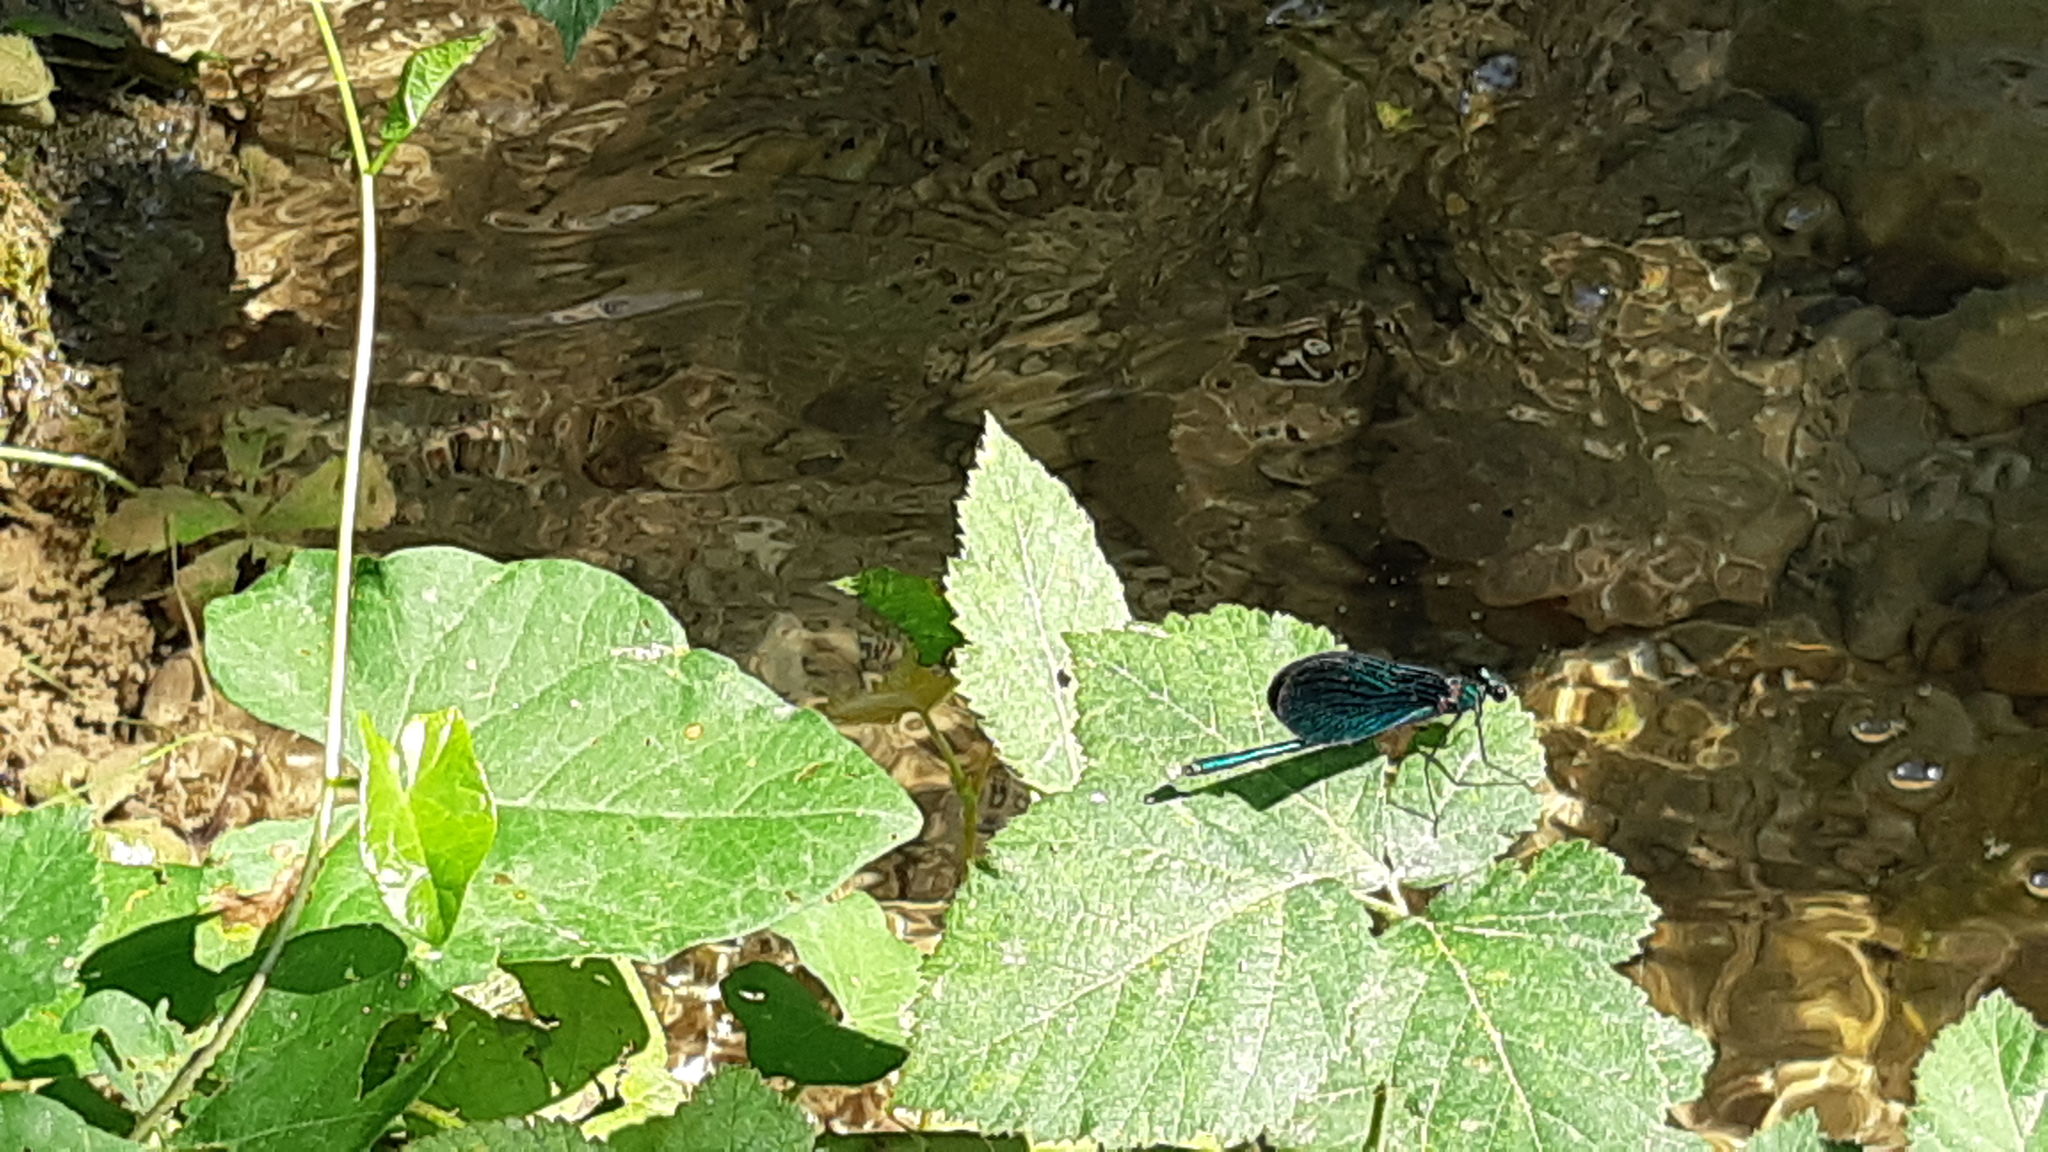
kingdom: Animalia
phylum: Arthropoda
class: Insecta
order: Odonata
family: Calopterygidae
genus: Calopteryx
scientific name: Calopteryx virgo
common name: Beautiful demoiselle
